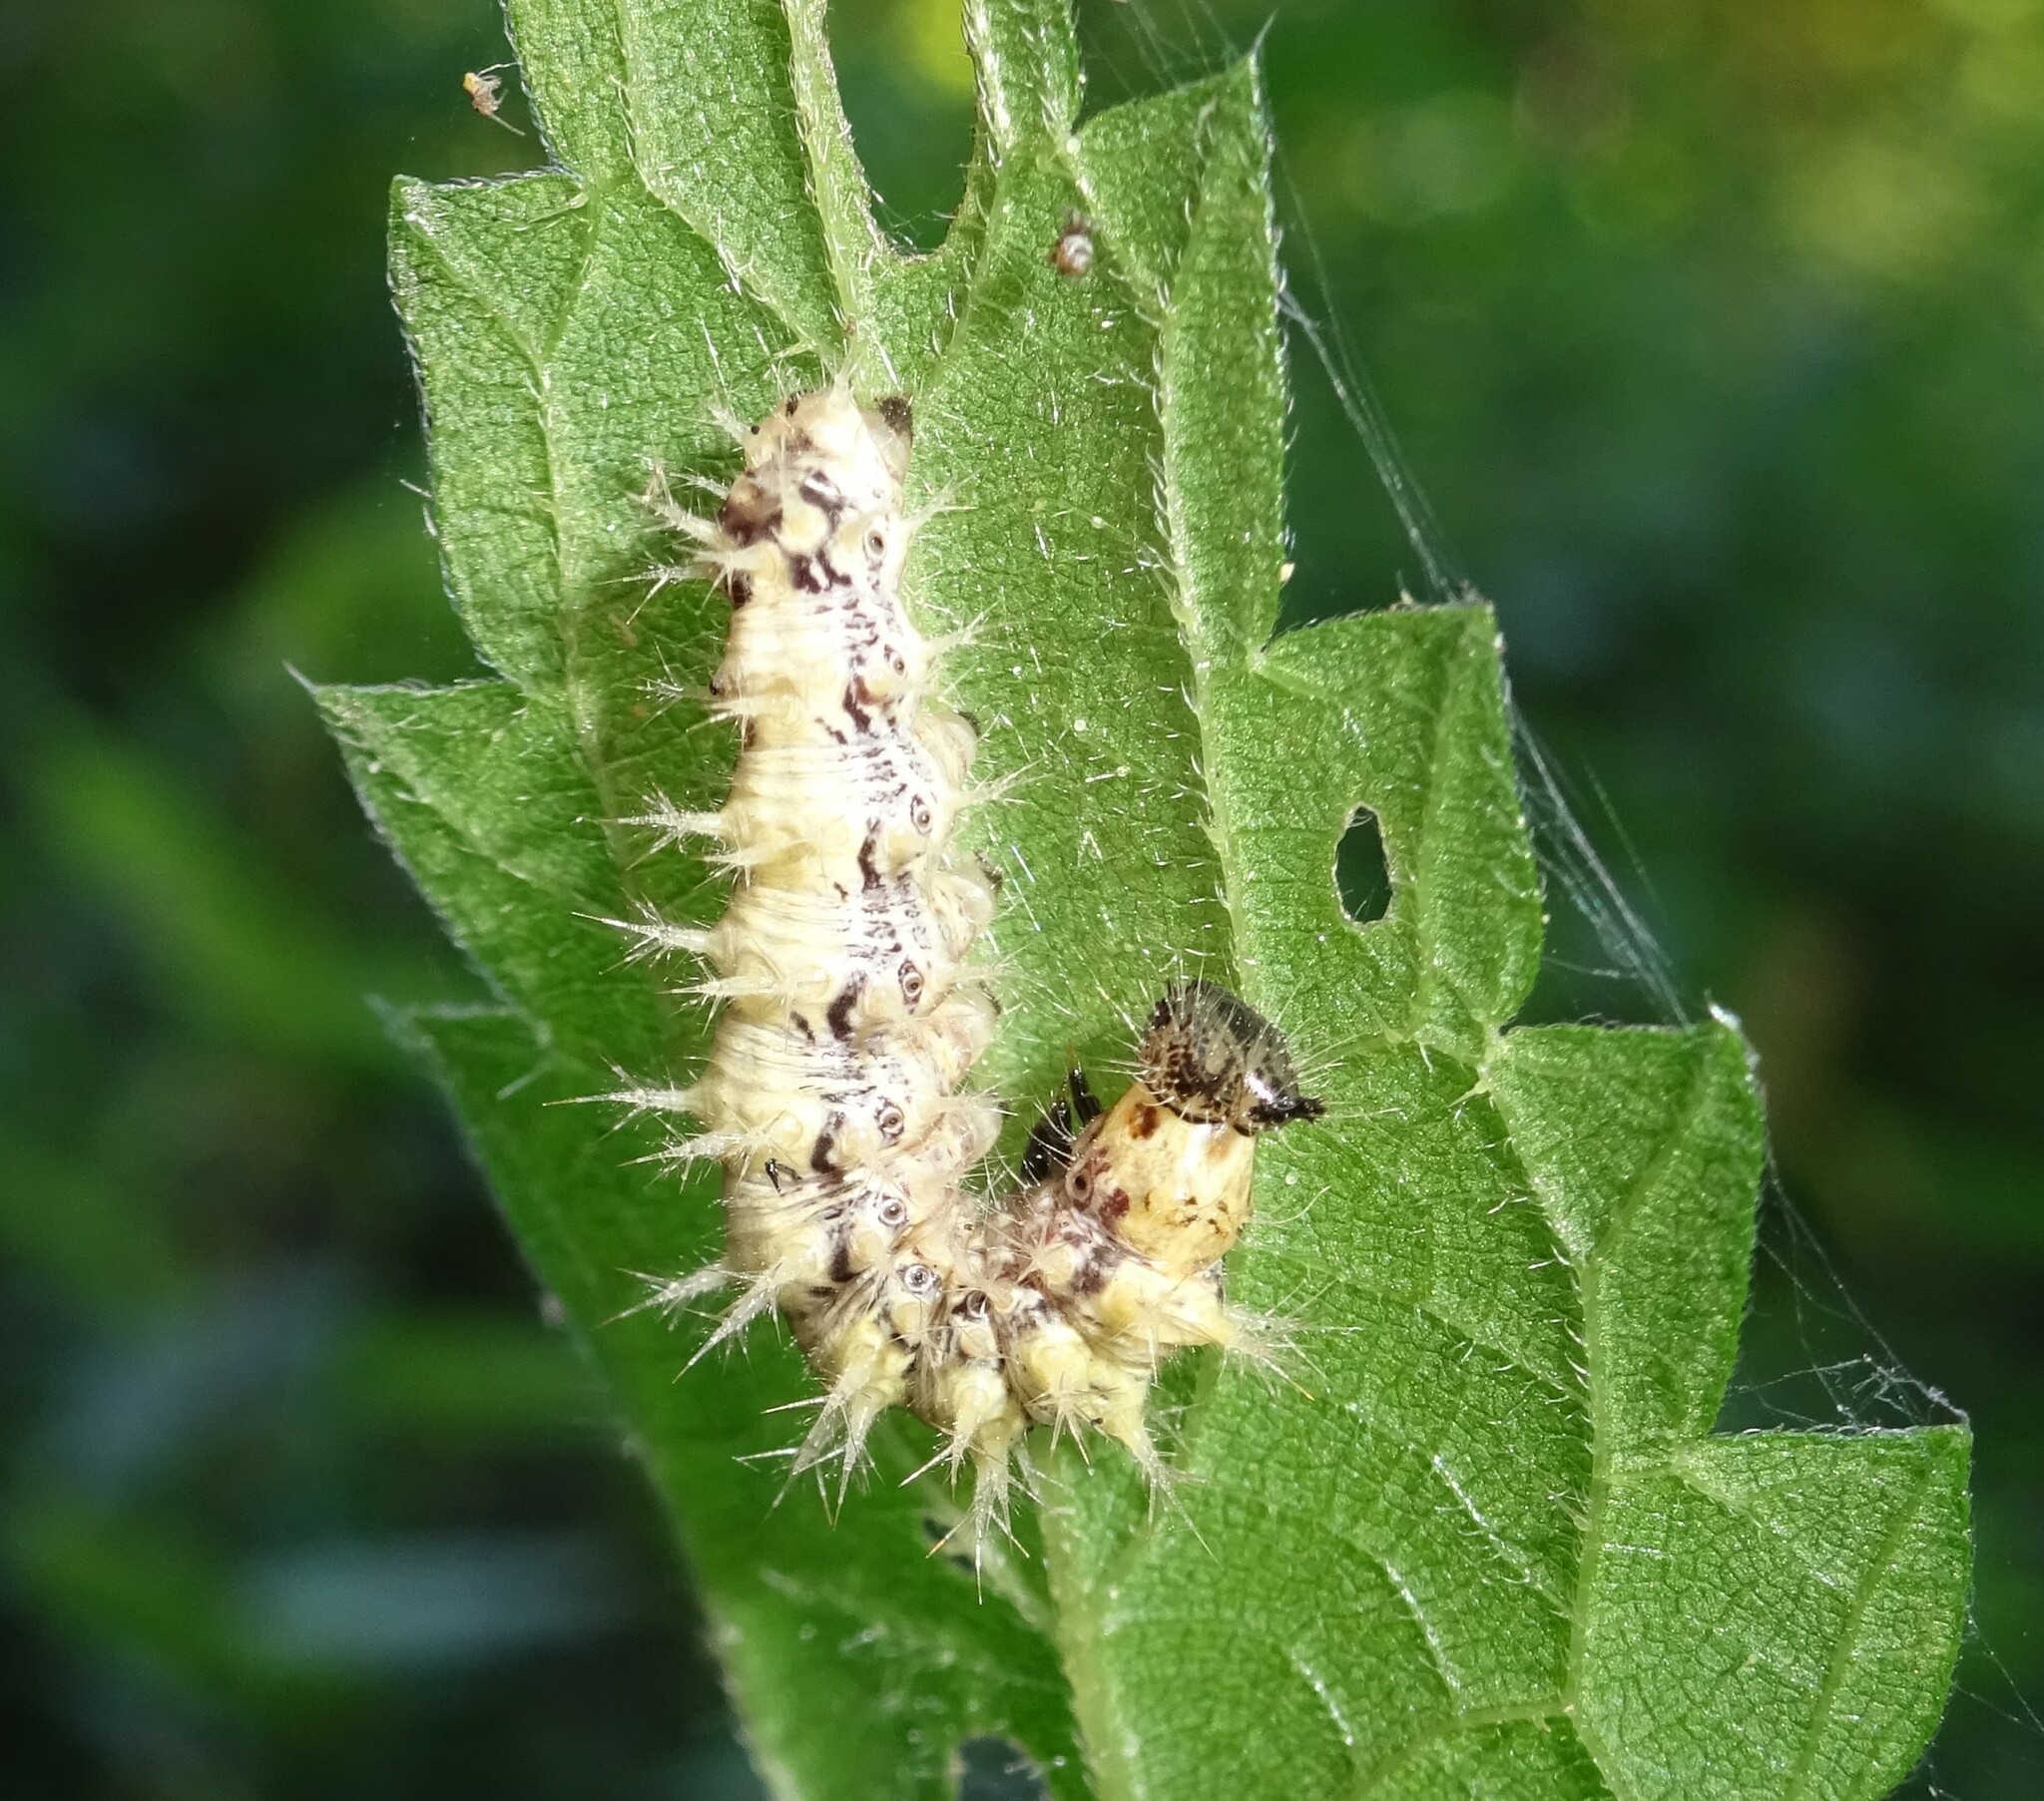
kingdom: Animalia
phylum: Arthropoda
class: Insecta
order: Lepidoptera
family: Nymphalidae
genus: Polygonia
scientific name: Polygonia c-album
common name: Comma
